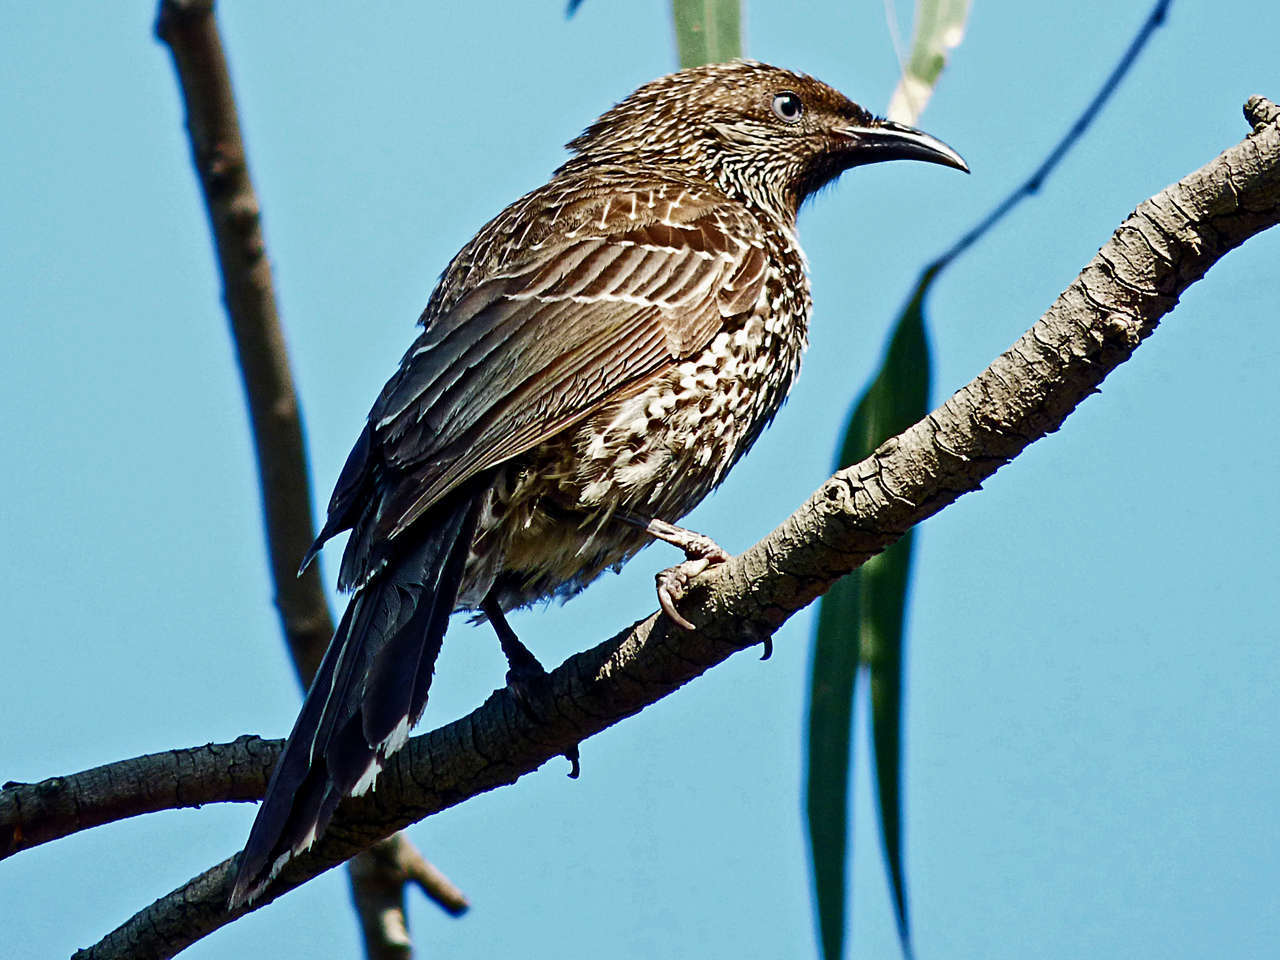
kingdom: Animalia
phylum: Chordata
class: Aves
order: Passeriformes
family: Meliphagidae
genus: Anthochaera
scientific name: Anthochaera chrysoptera
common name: Little wattlebird
